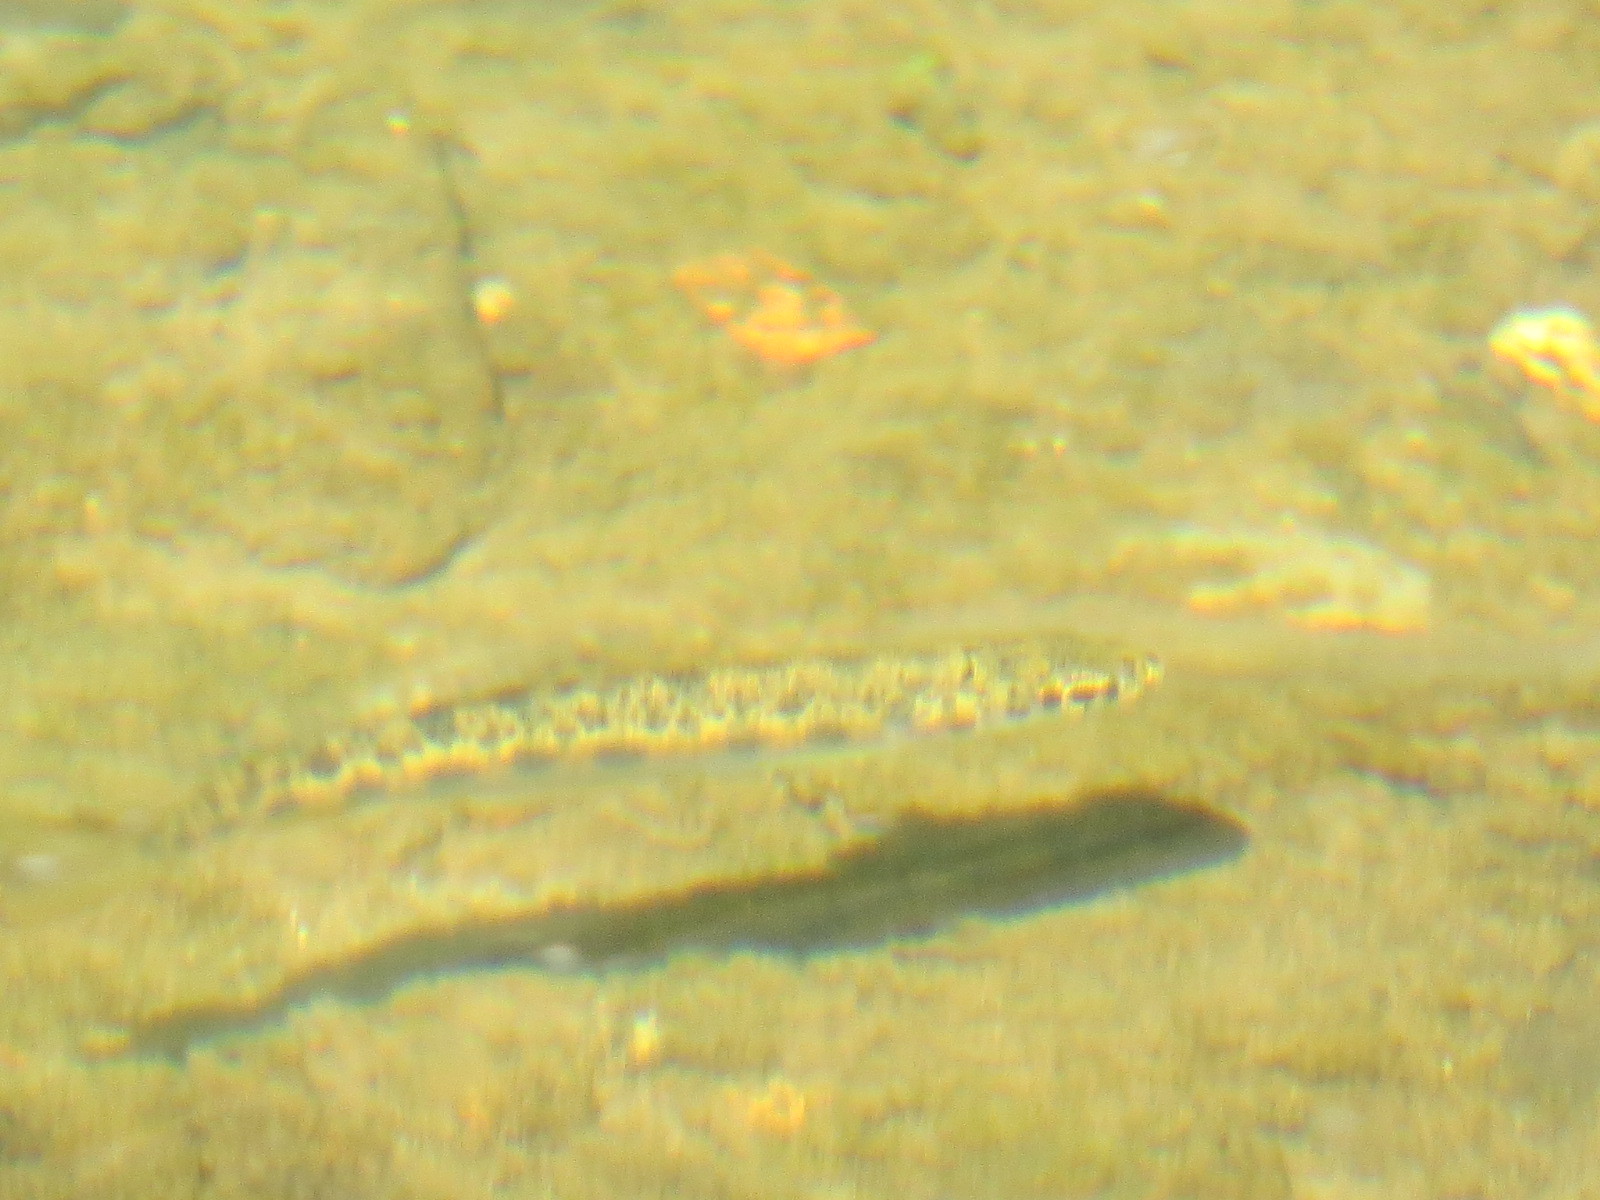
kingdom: Animalia
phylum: Chordata
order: Salmoniformes
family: Salmonidae
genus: Oncorhynchus
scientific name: Oncorhynchus mykiss
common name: Rainbow trout
